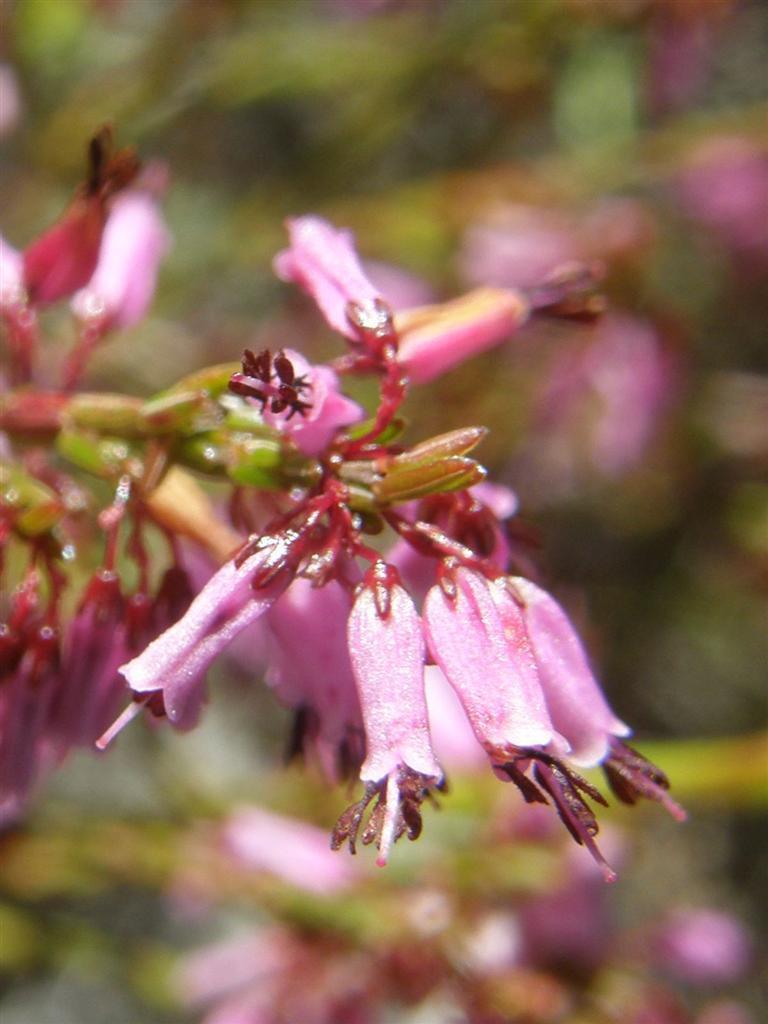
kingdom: Plantae
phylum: Tracheophyta
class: Magnoliopsida
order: Ericales
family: Ericaceae
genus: Erica
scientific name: Erica equisetifolia
